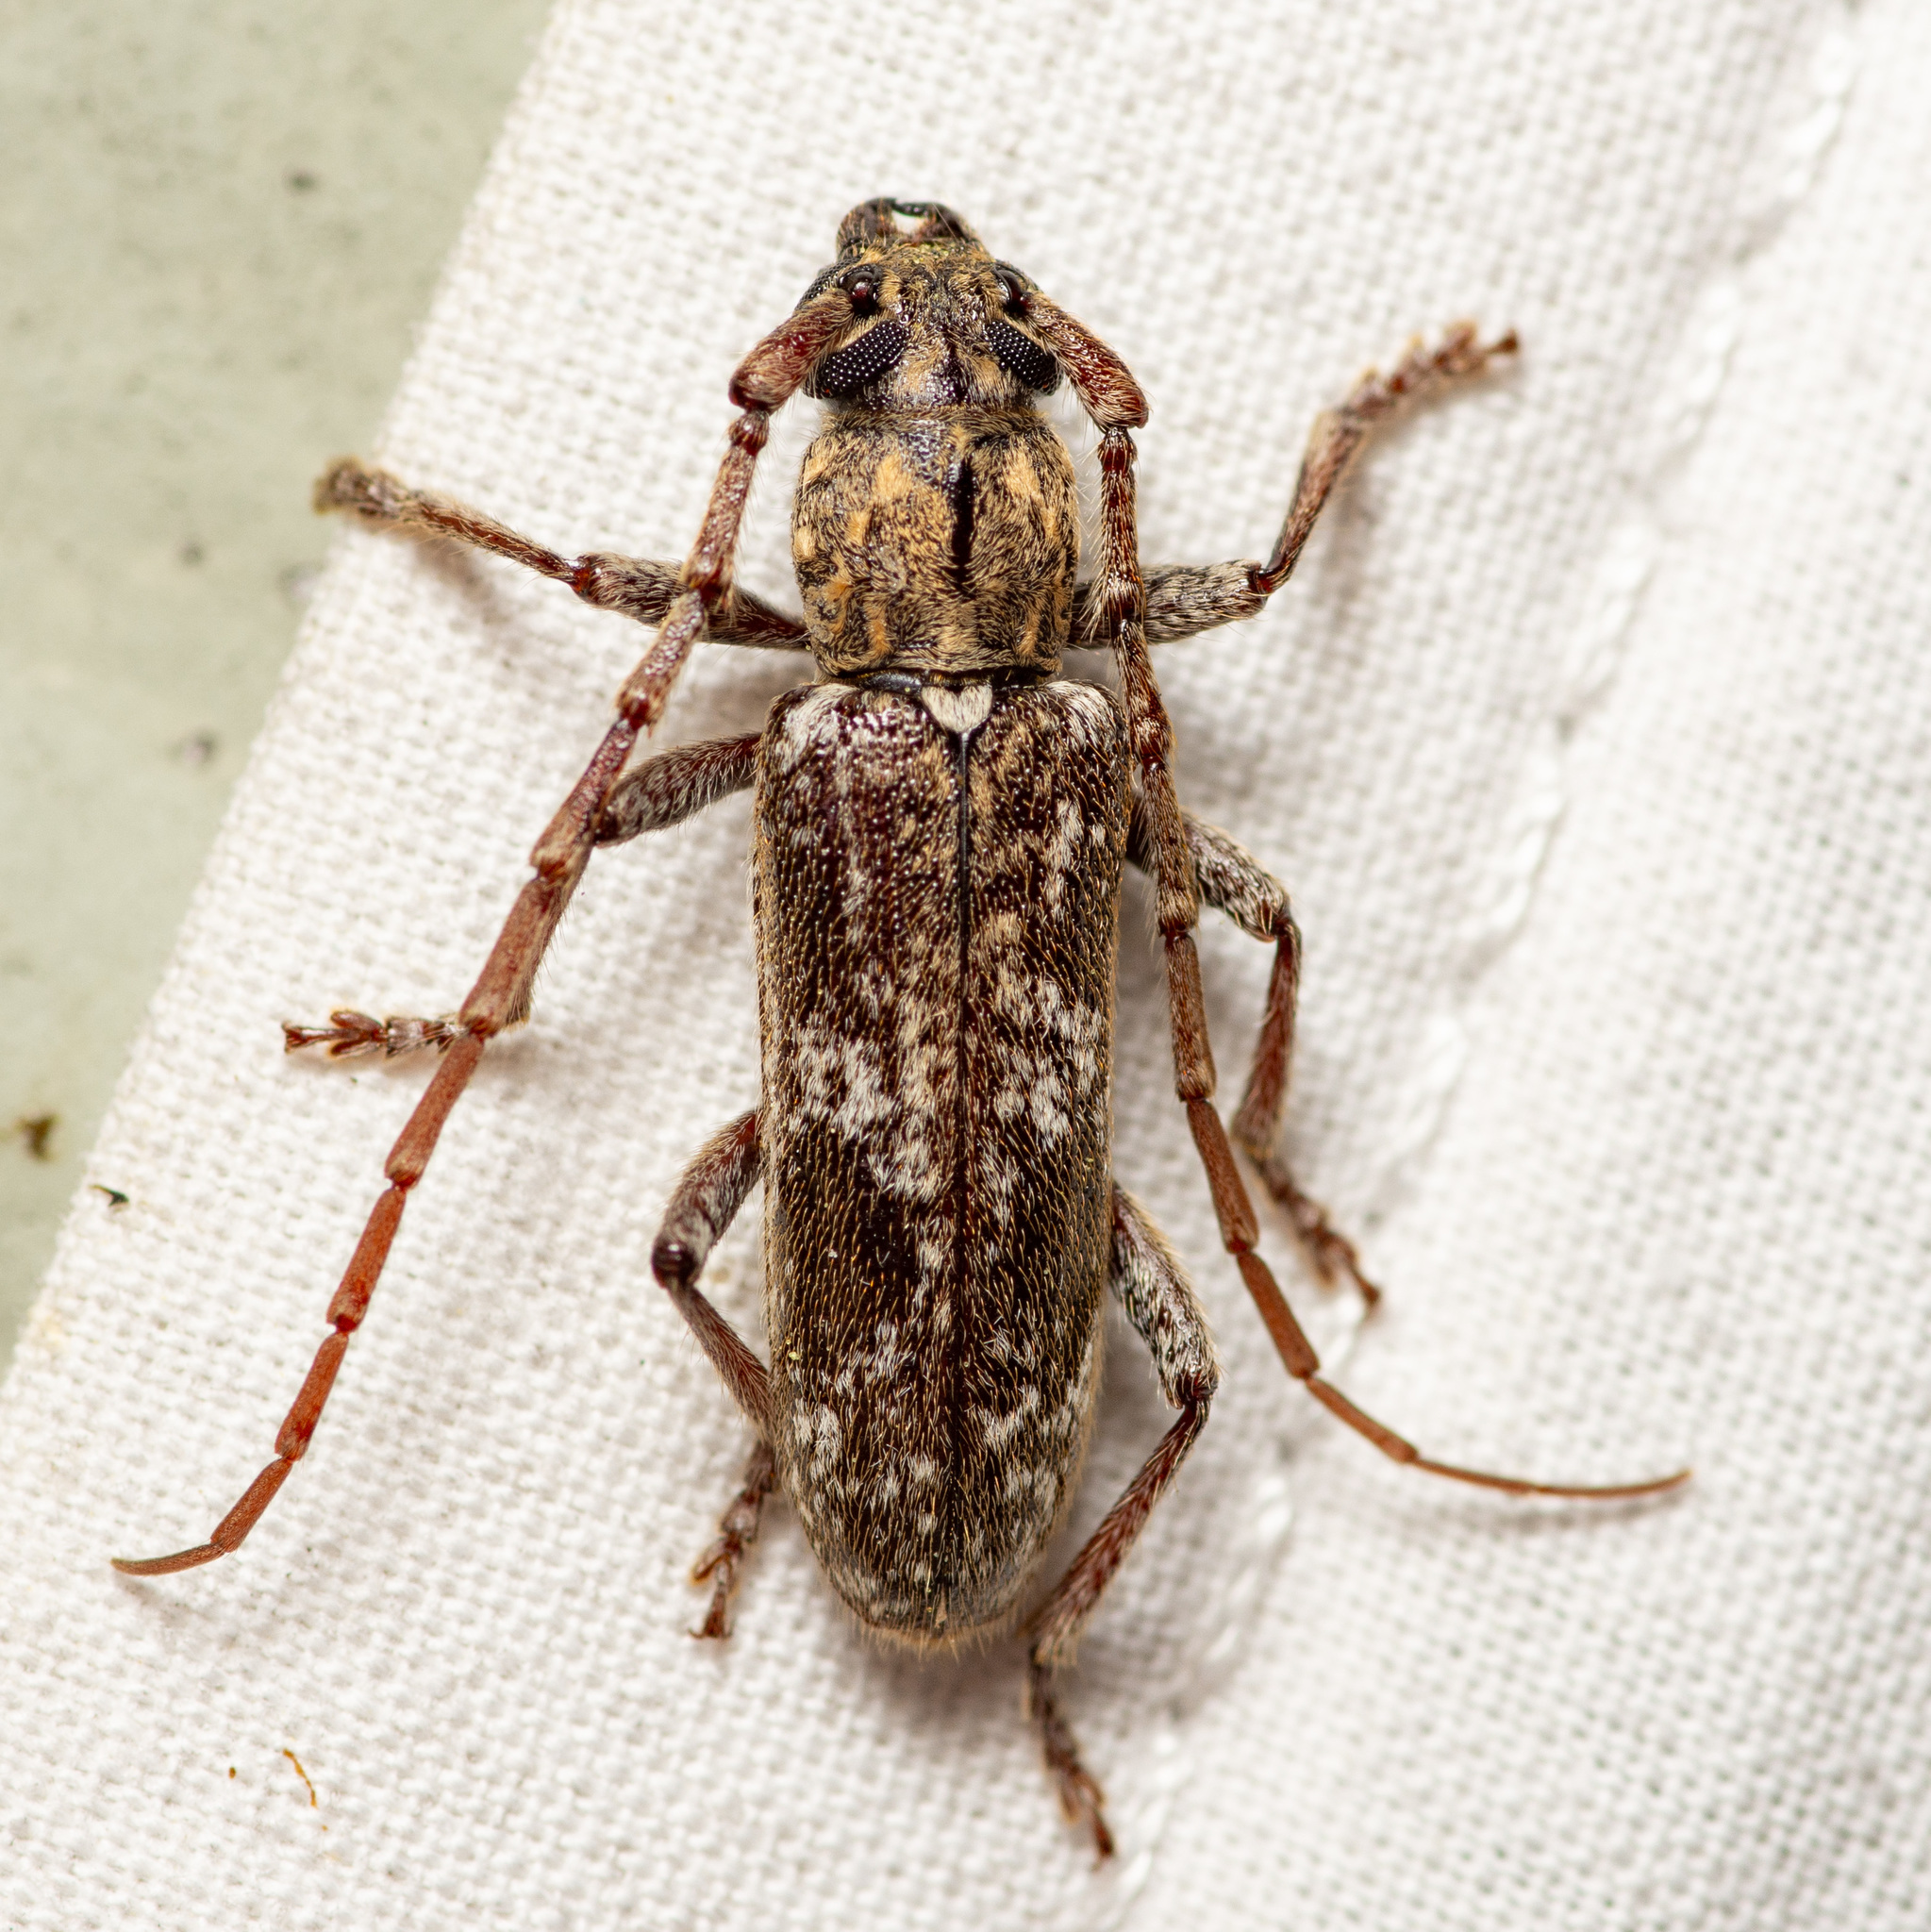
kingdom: Animalia
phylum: Arthropoda
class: Insecta
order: Coleoptera
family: Cerambycidae
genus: Anelaphus
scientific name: Anelaphus debilis
